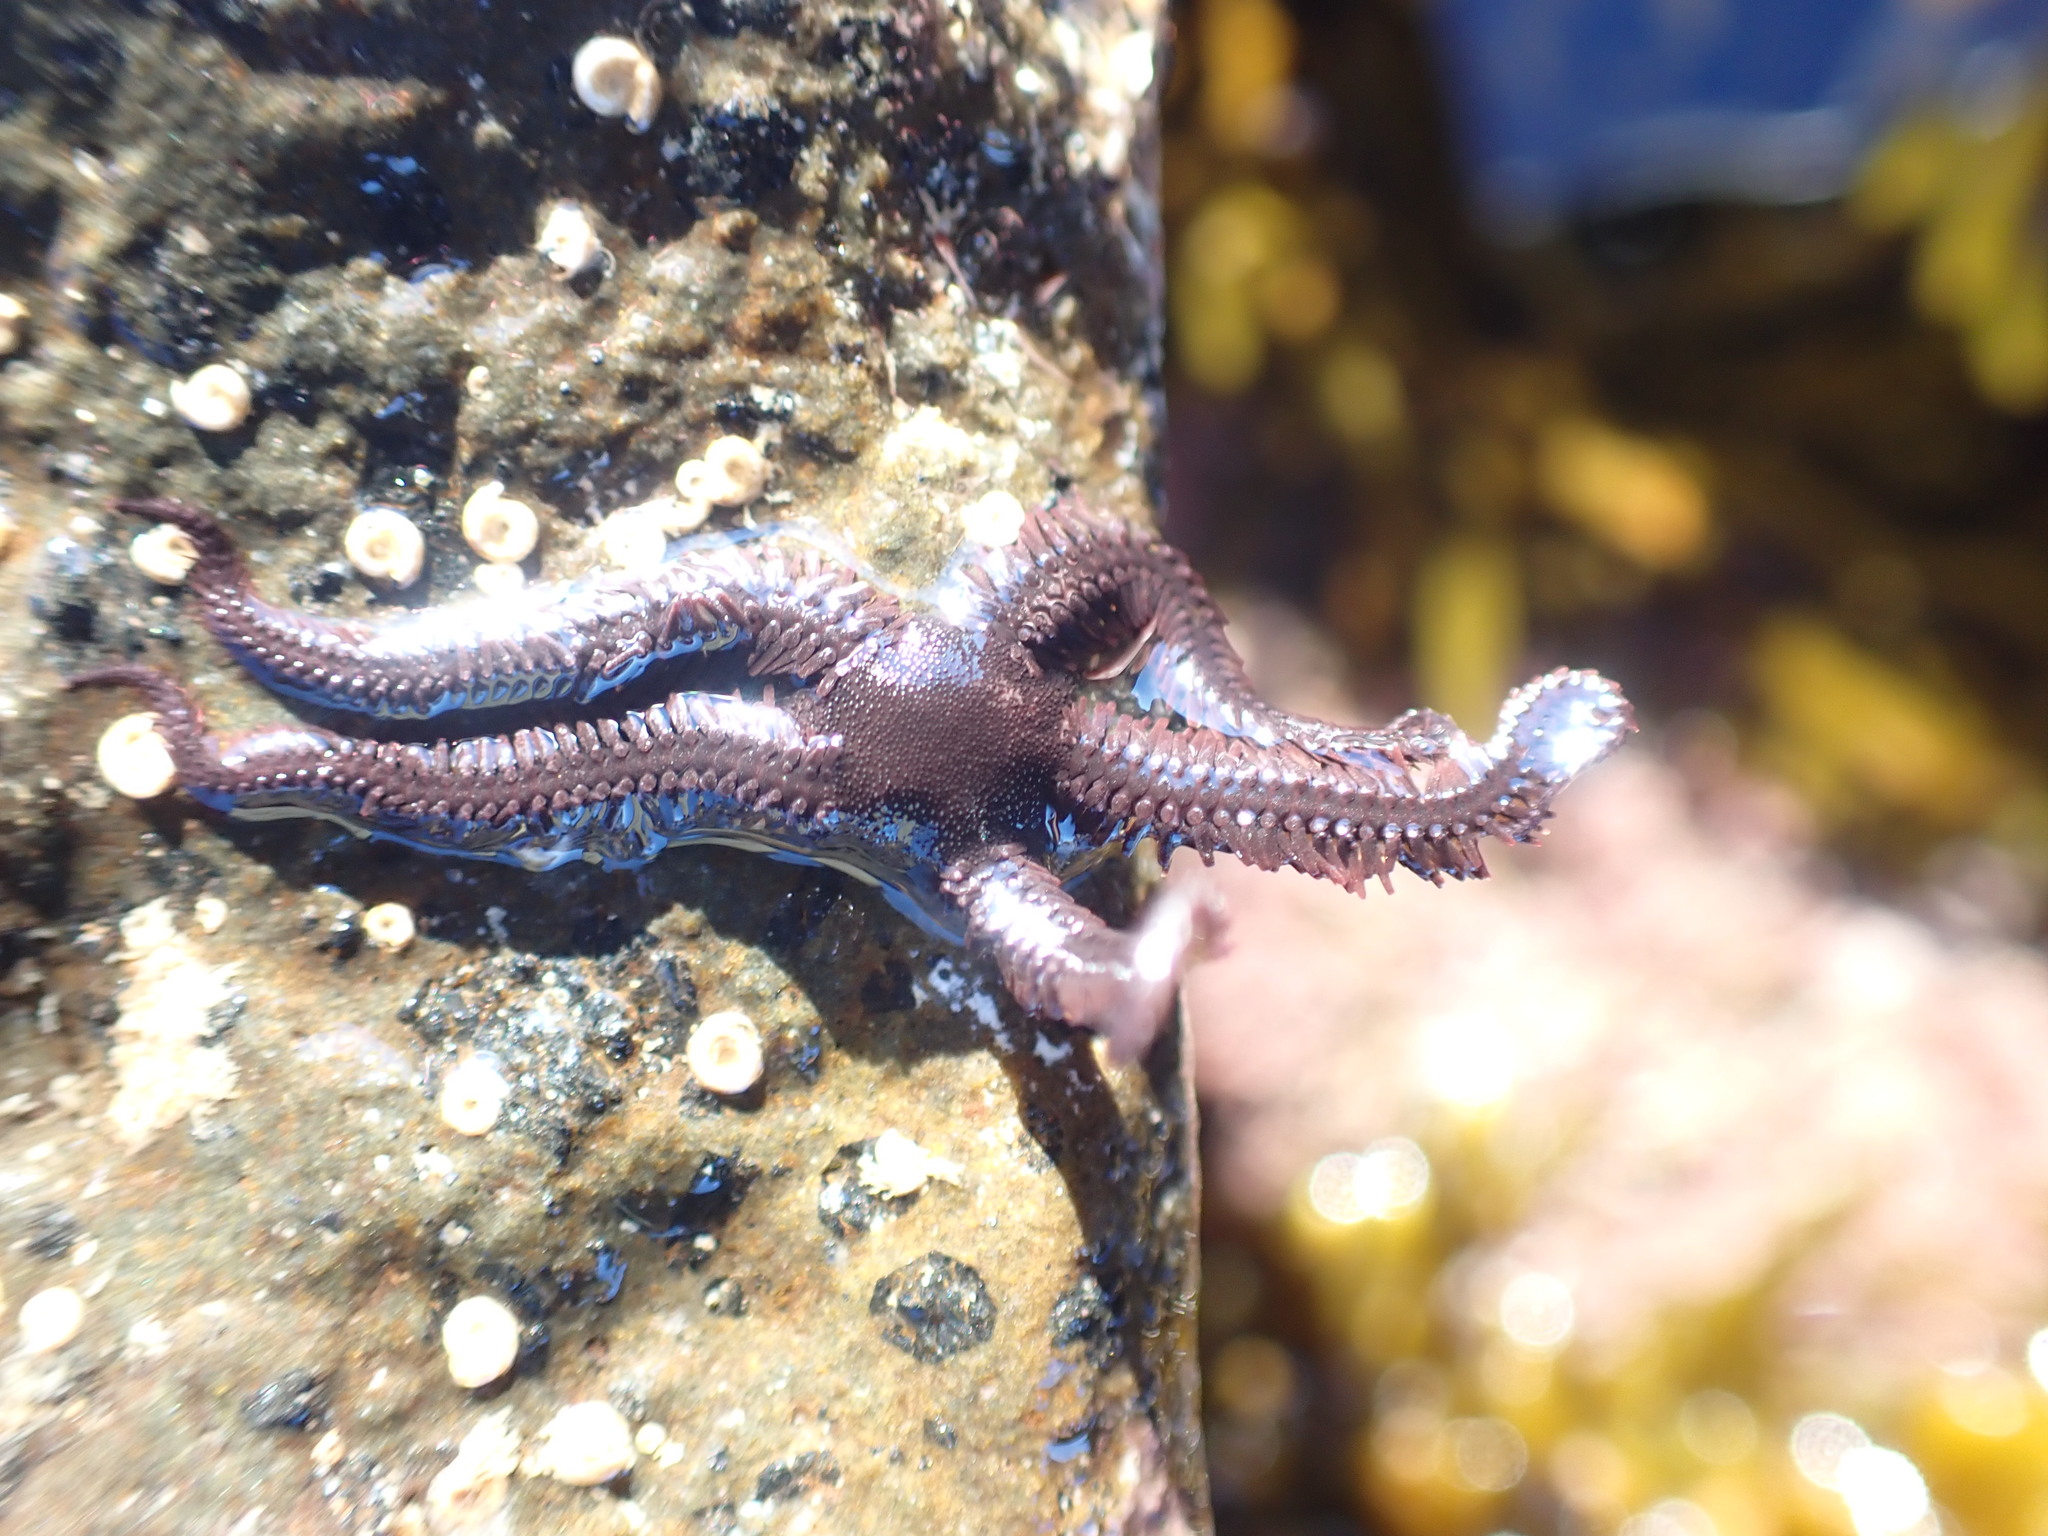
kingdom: Animalia
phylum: Echinodermata
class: Ophiuroidea
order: Ophiacanthida
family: Ophiopteridae
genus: Ophiopteris
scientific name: Ophiopteris antipodum
